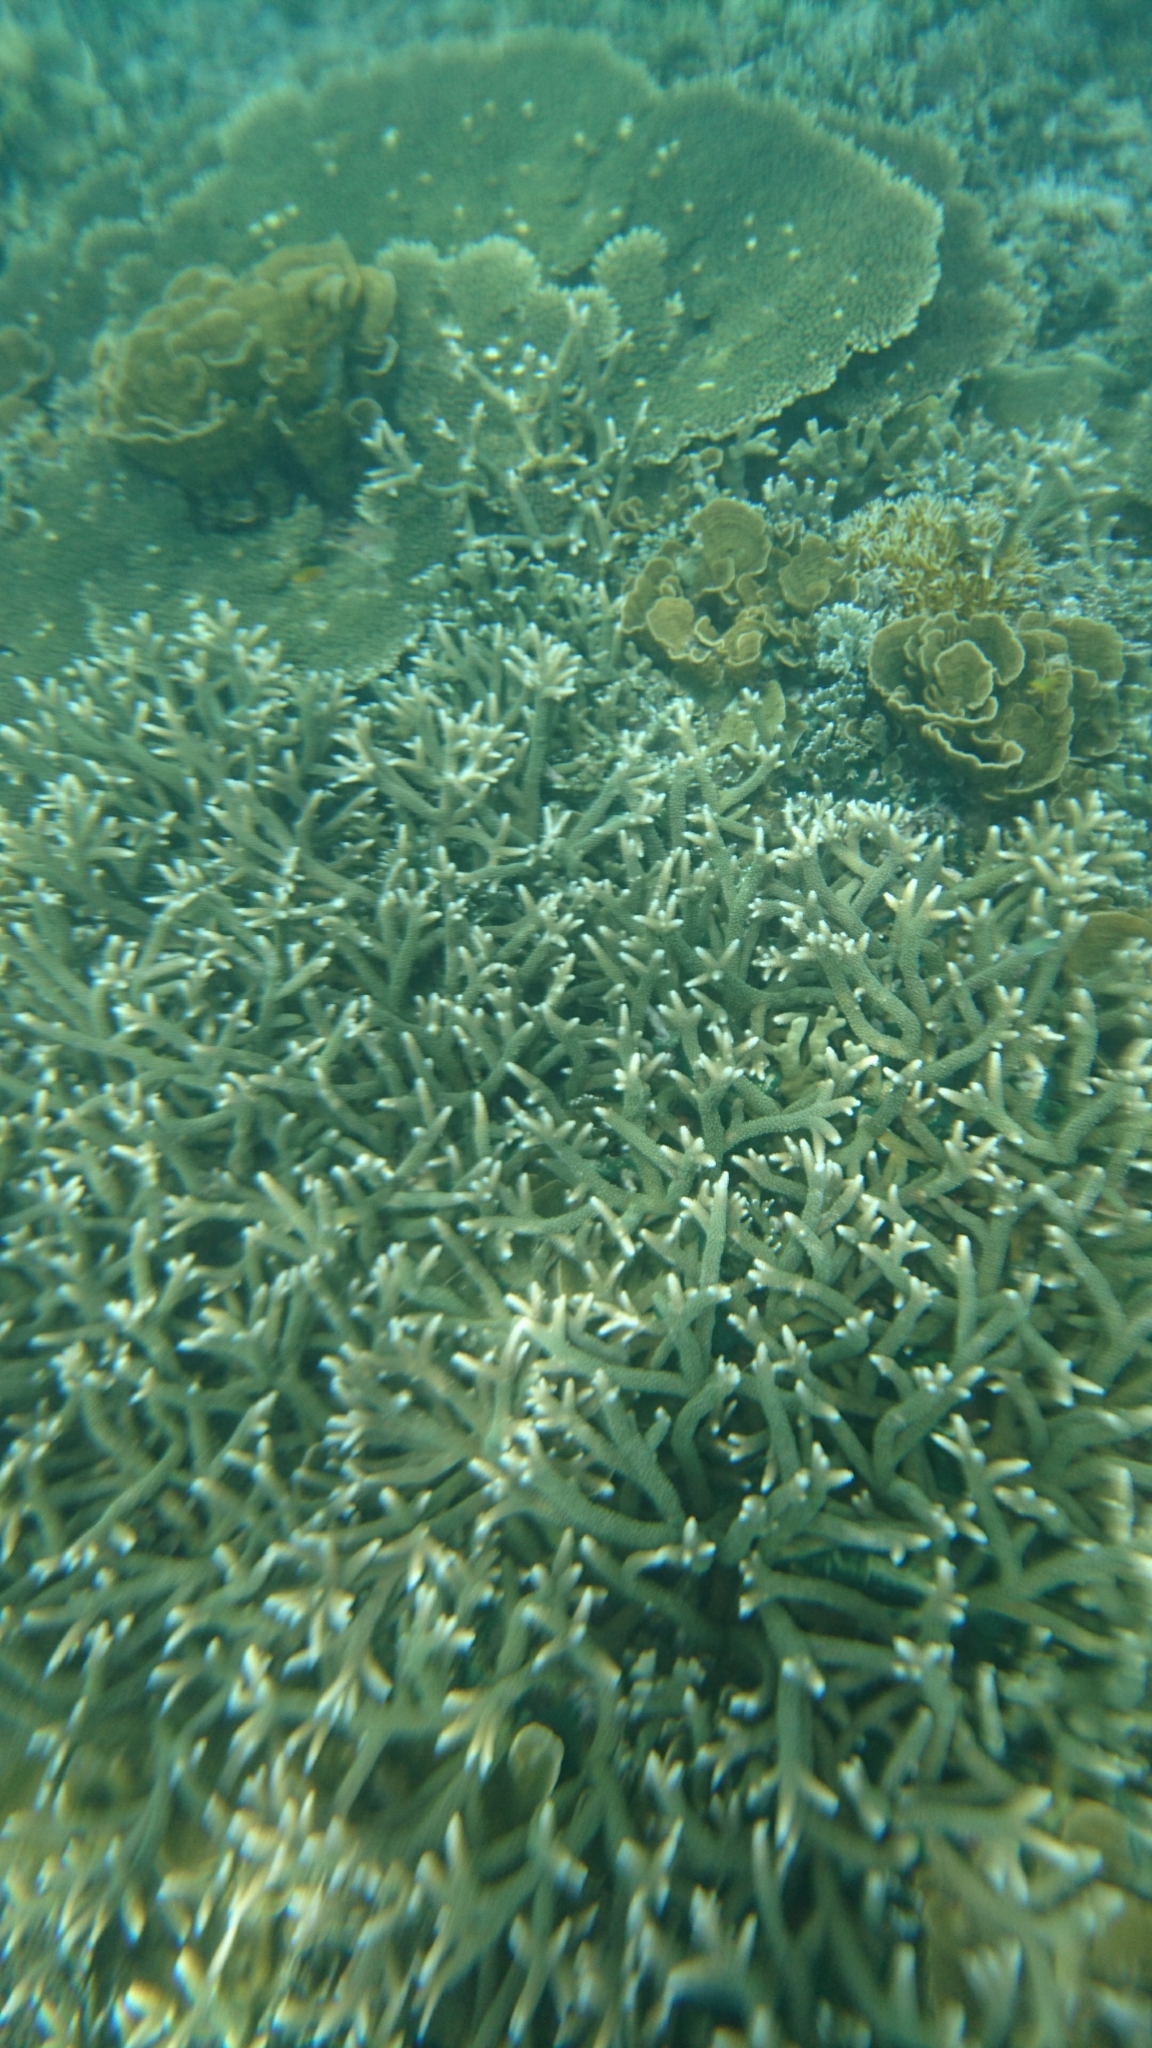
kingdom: Animalia
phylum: Cnidaria
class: Anthozoa
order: Scleractinia
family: Acroporidae
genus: Acropora
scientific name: Acropora
